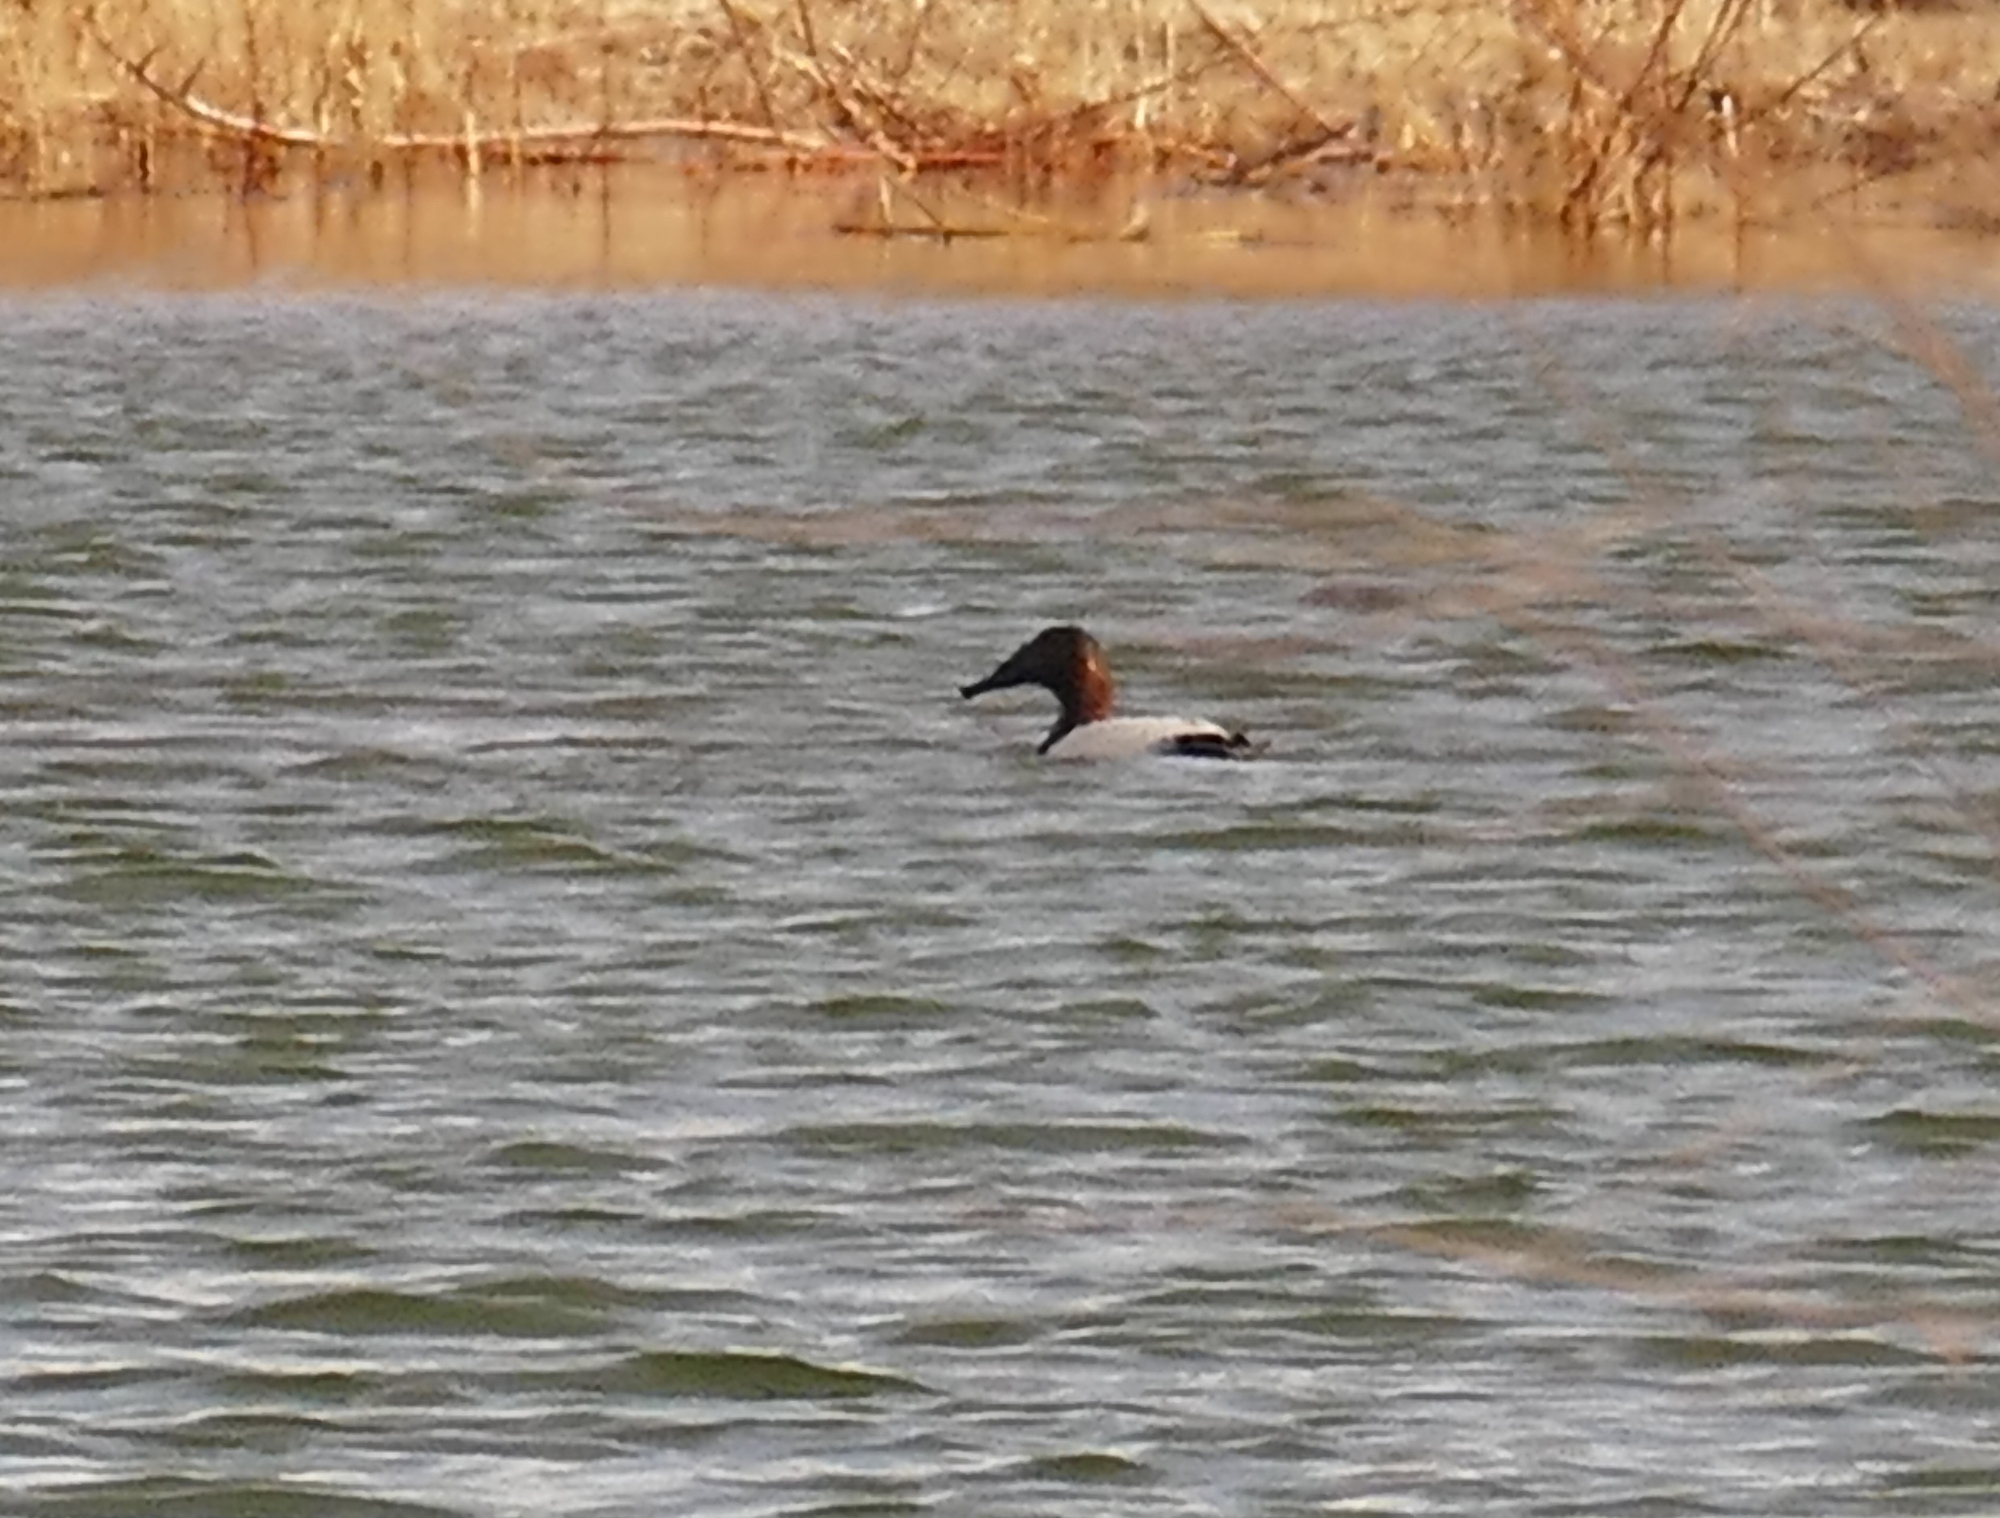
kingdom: Animalia
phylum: Chordata
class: Aves
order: Anseriformes
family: Anatidae
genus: Aythya
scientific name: Aythya valisineria
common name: Canvasback
